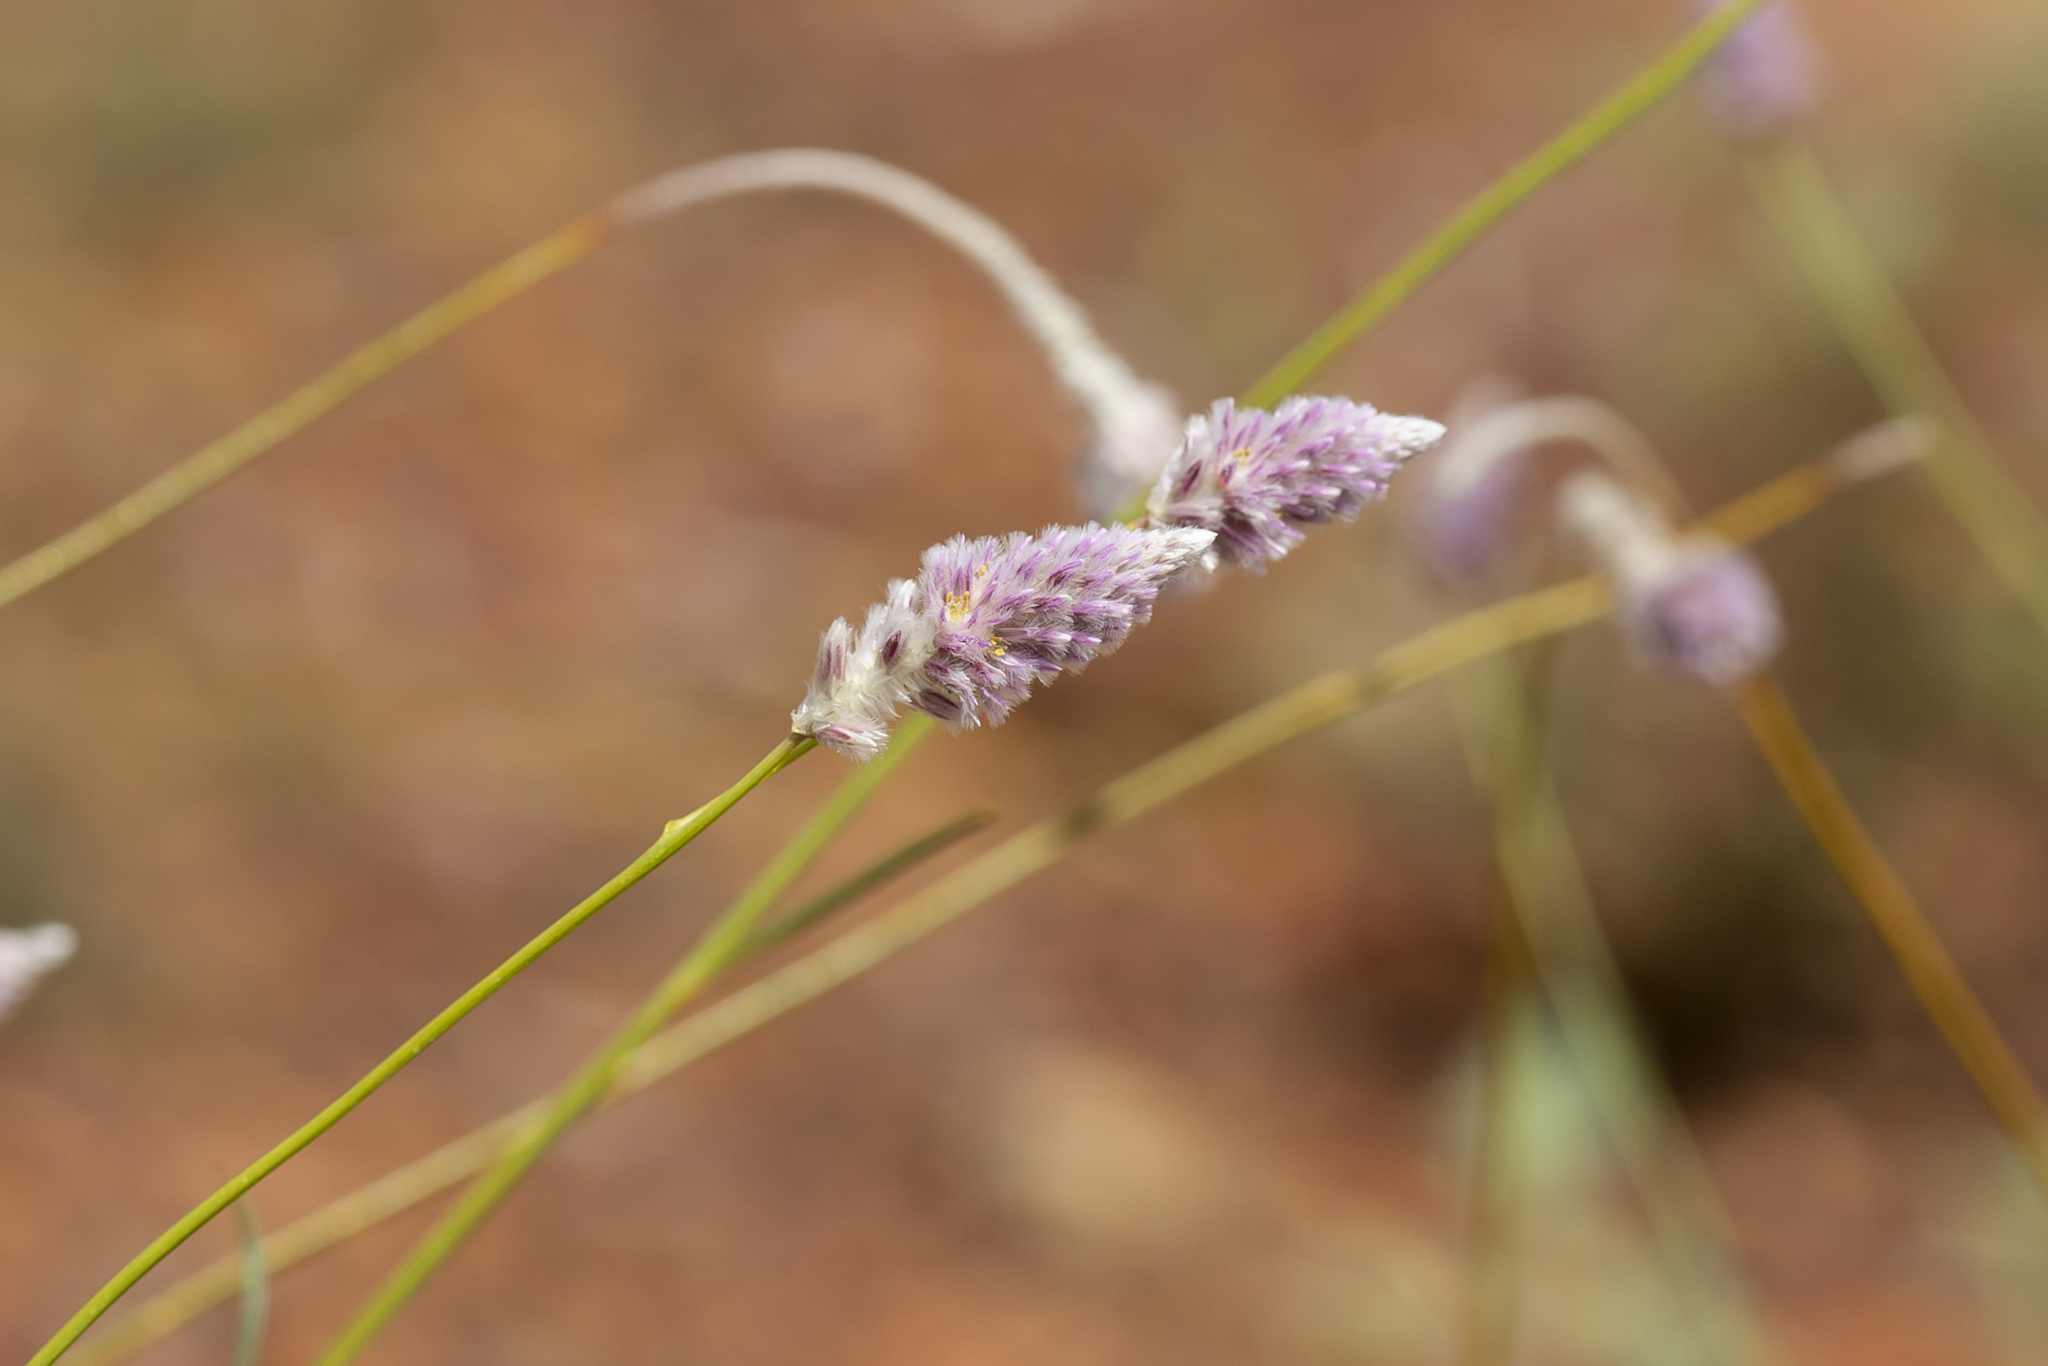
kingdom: Plantae
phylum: Tracheophyta
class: Magnoliopsida
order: Caryophyllales
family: Amaranthaceae
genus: Ptilotus
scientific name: Ptilotus calostachyus
